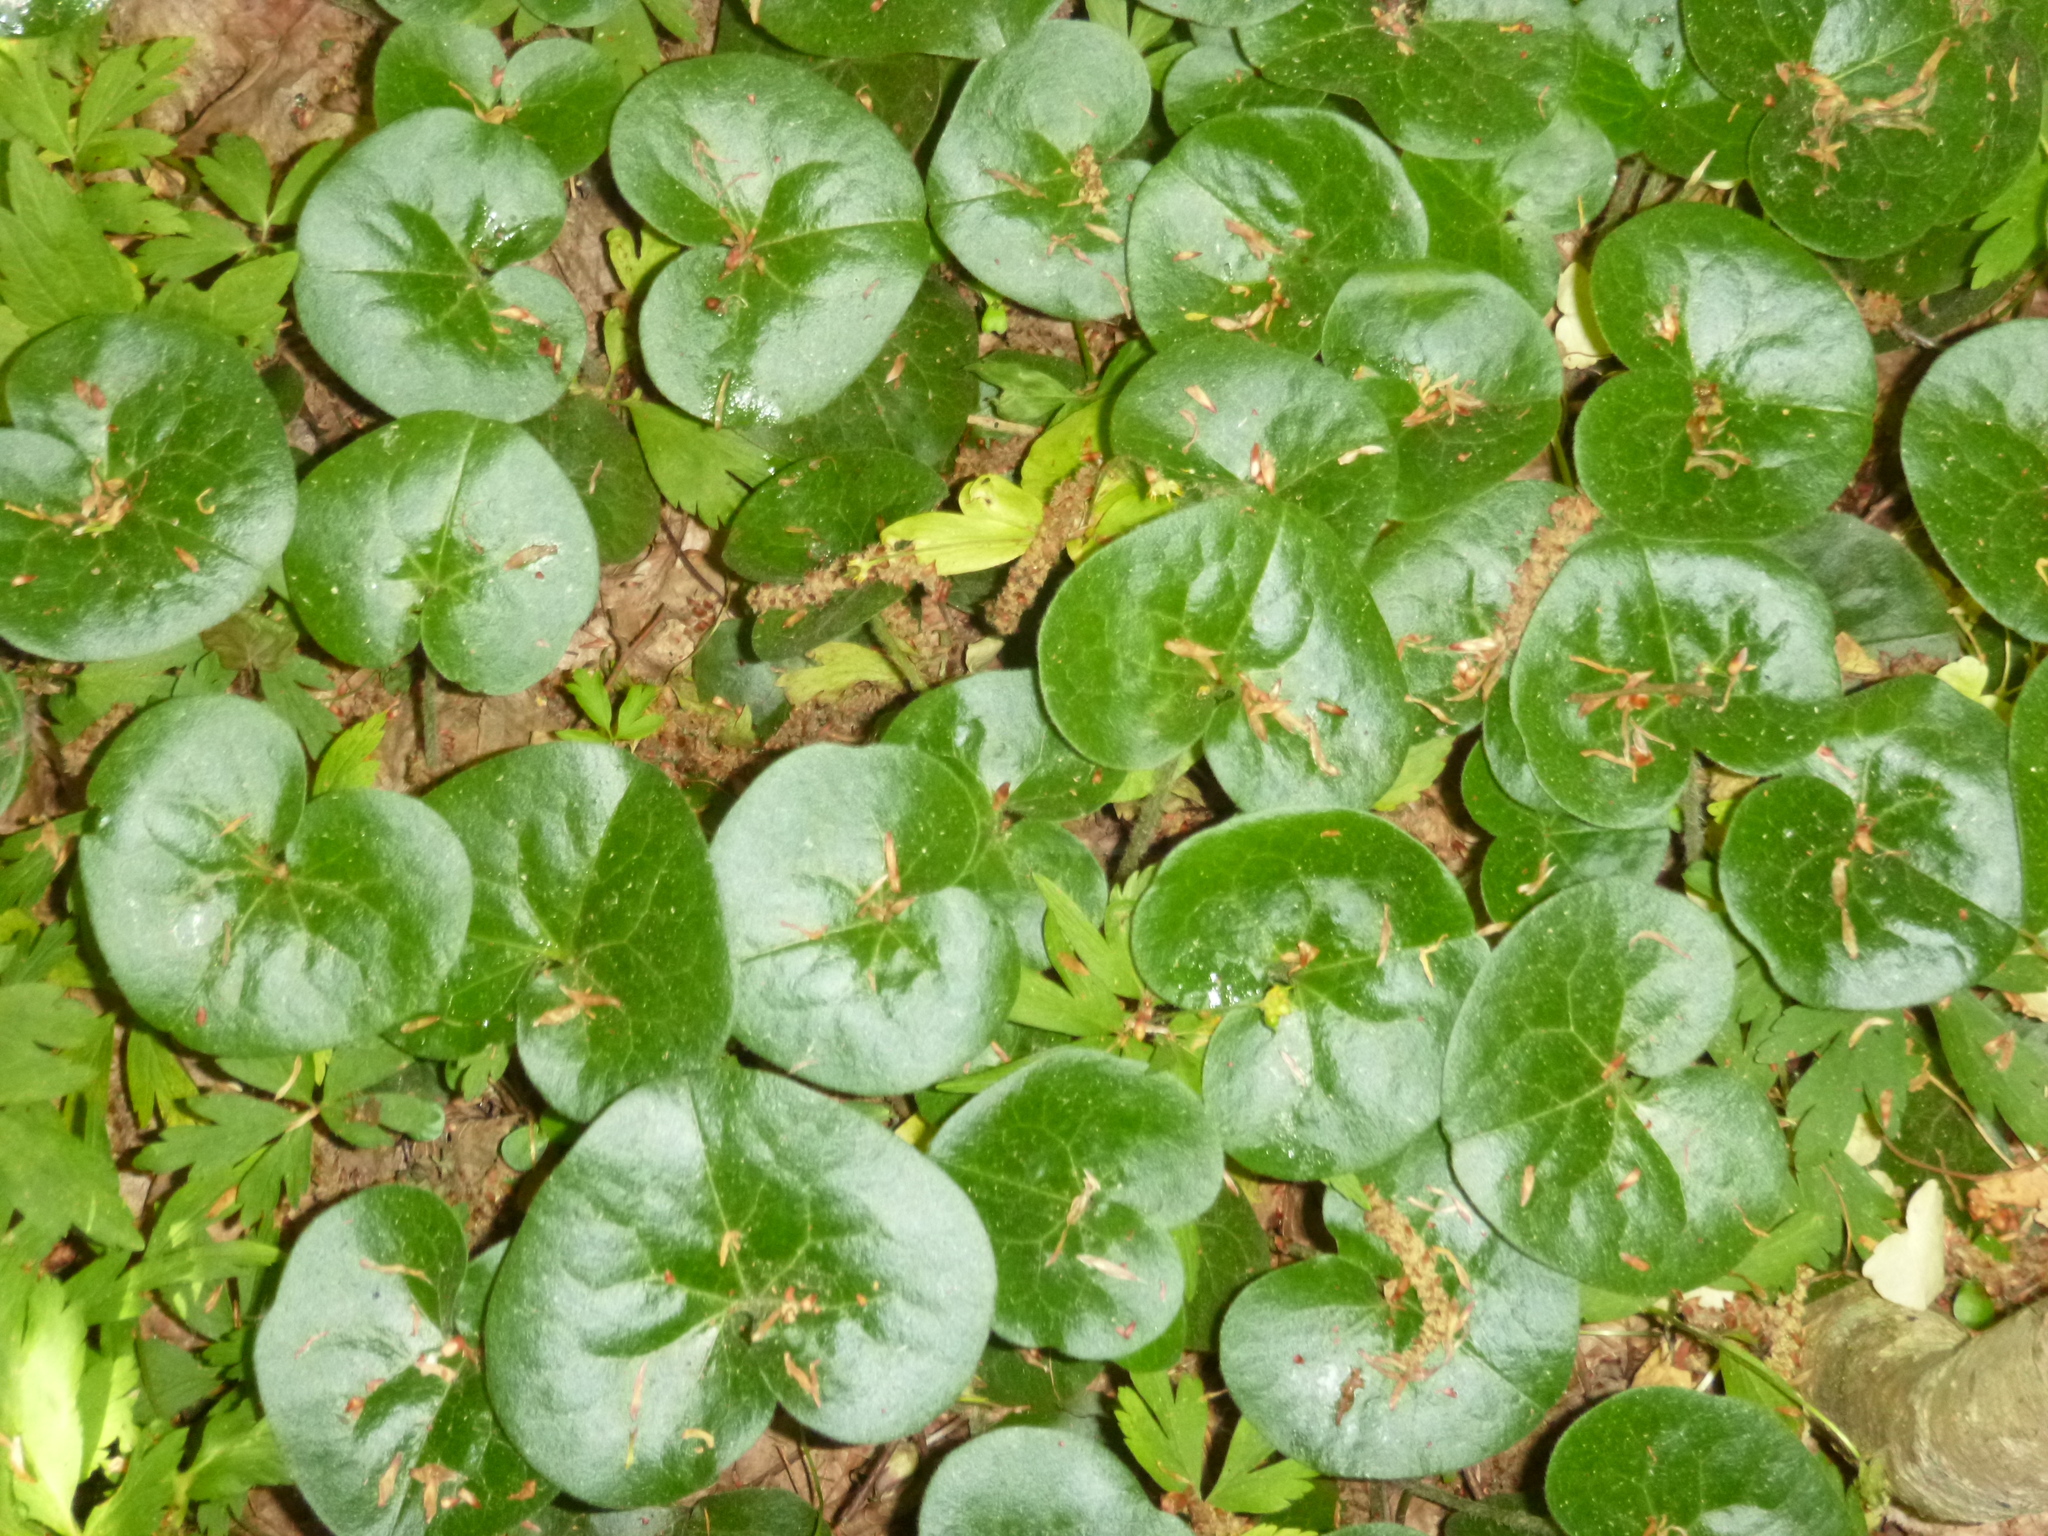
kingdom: Plantae
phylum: Tracheophyta
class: Magnoliopsida
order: Piperales
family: Aristolochiaceae
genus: Asarum
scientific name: Asarum europaeum
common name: Asarabacca
